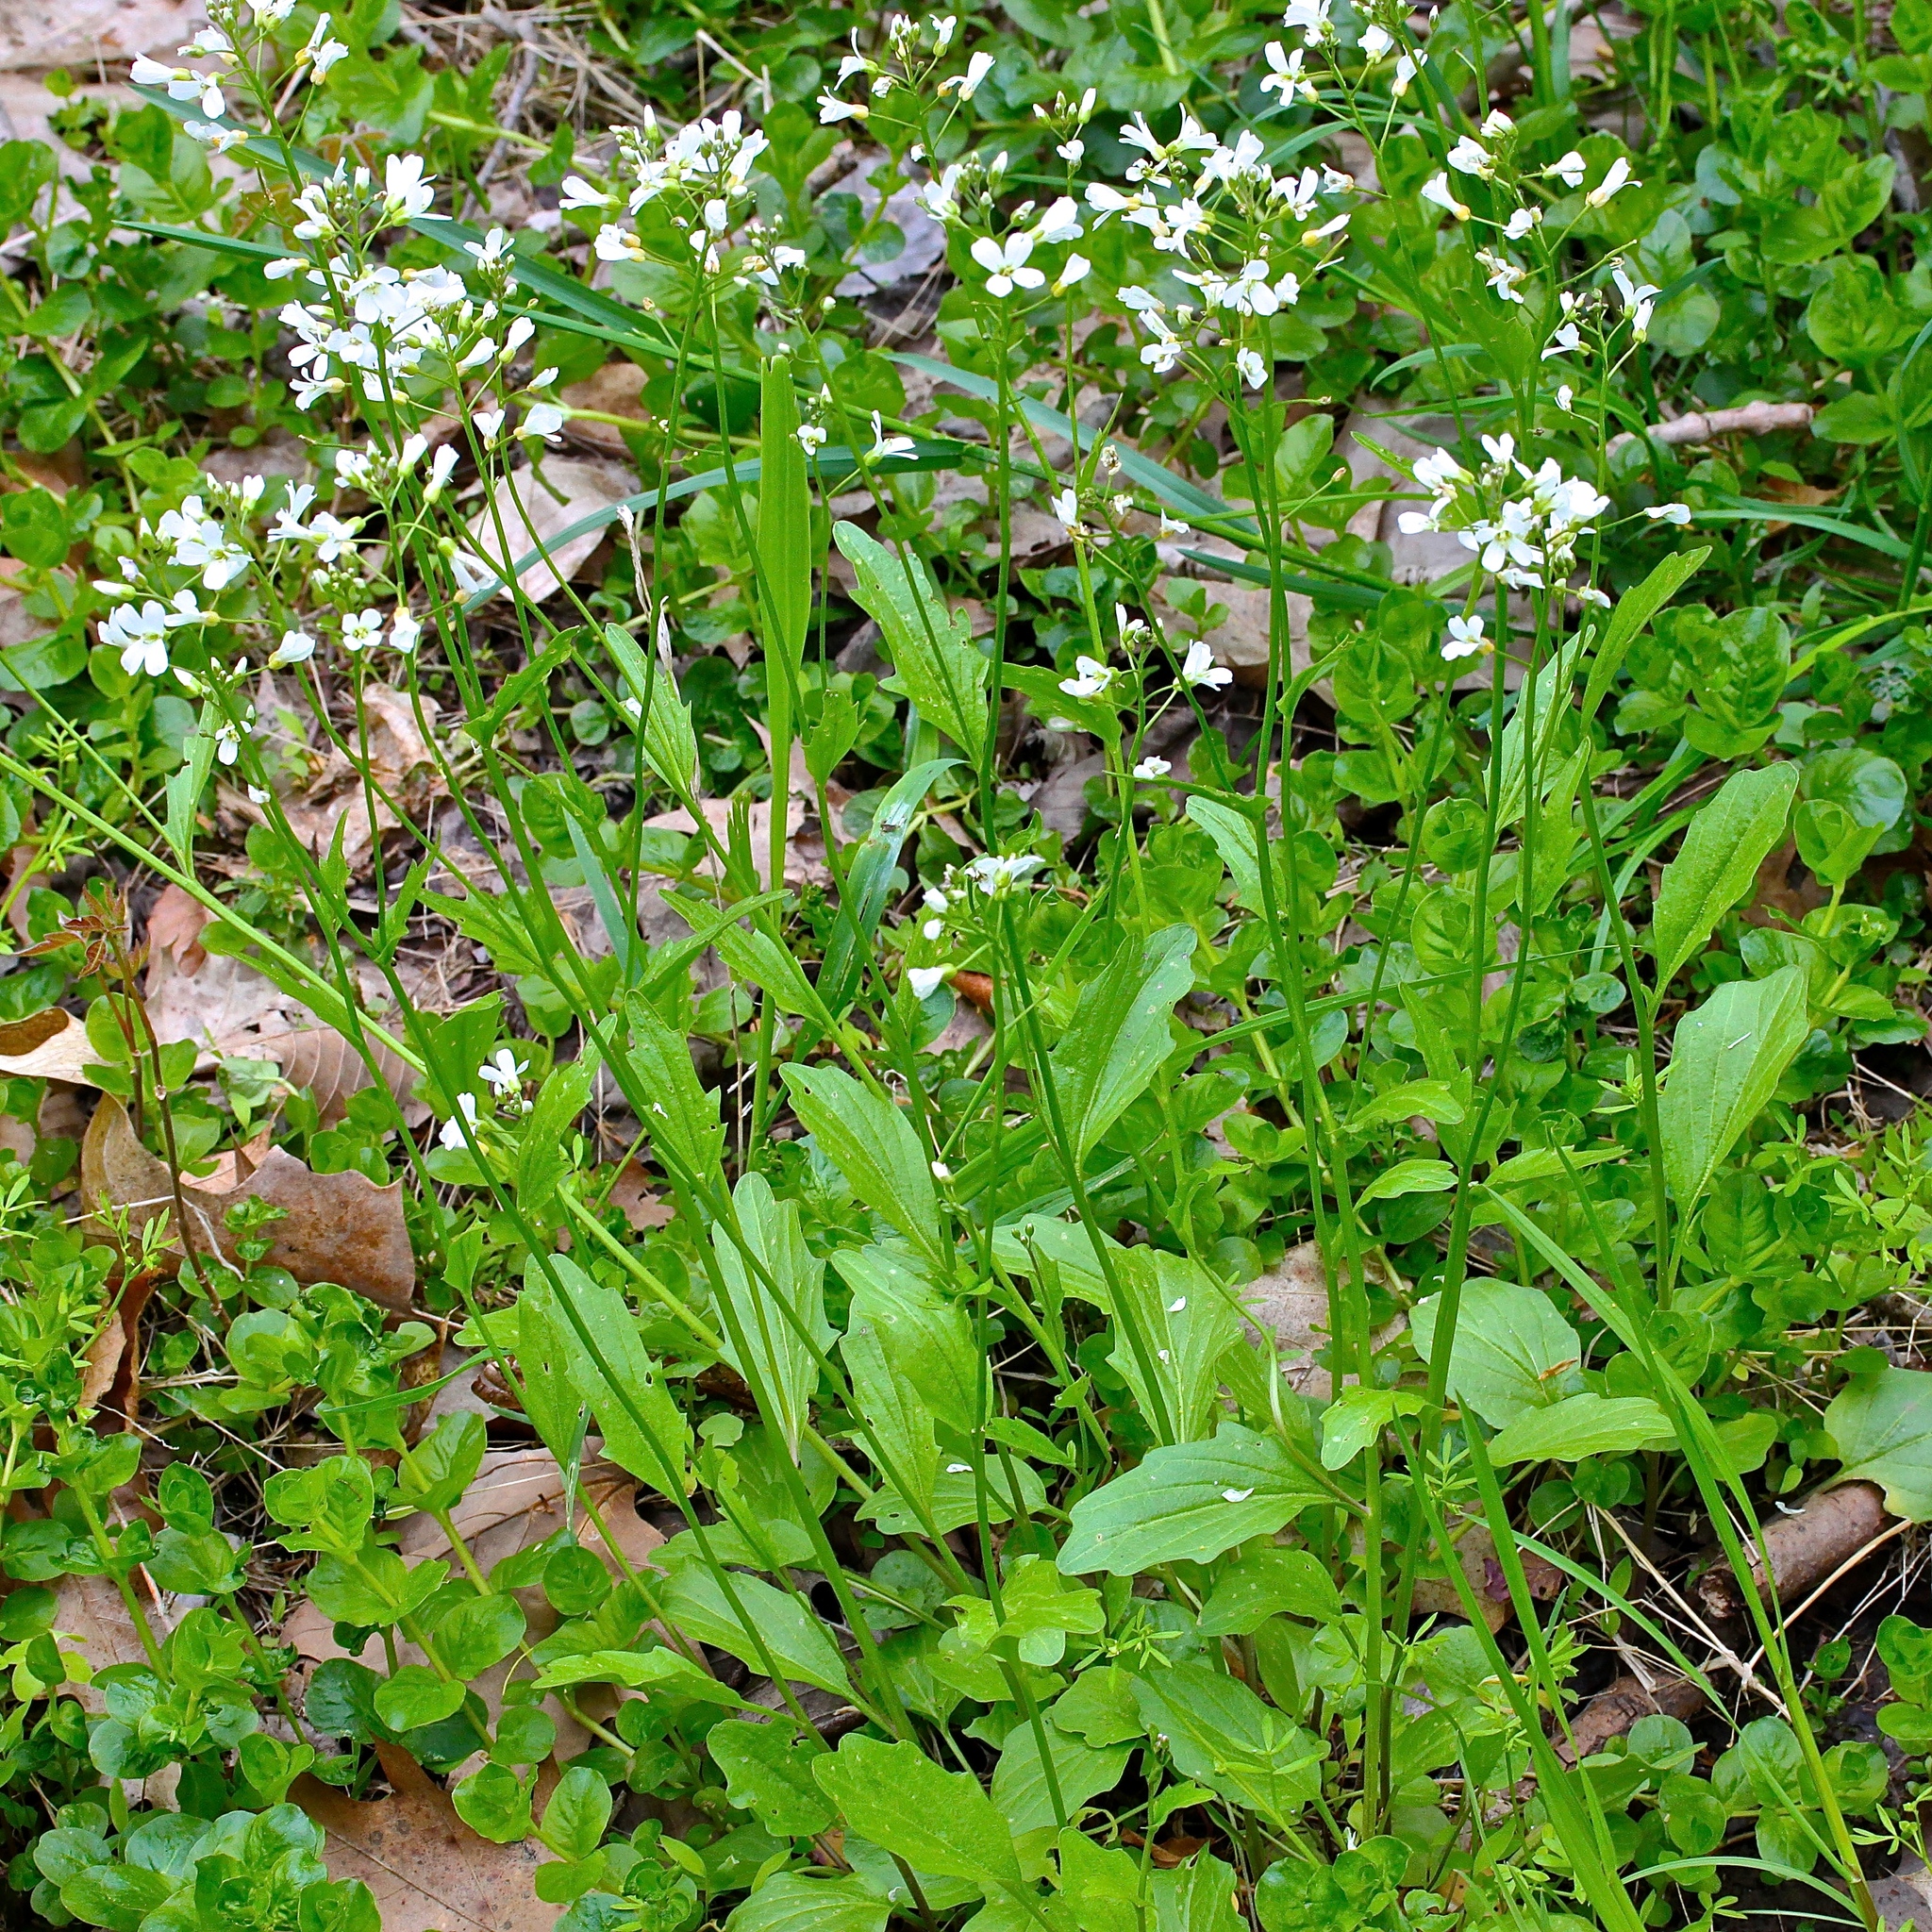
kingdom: Plantae
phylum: Tracheophyta
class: Magnoliopsida
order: Brassicales
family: Brassicaceae
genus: Cardamine
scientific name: Cardamine bulbosa
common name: Spring cress
